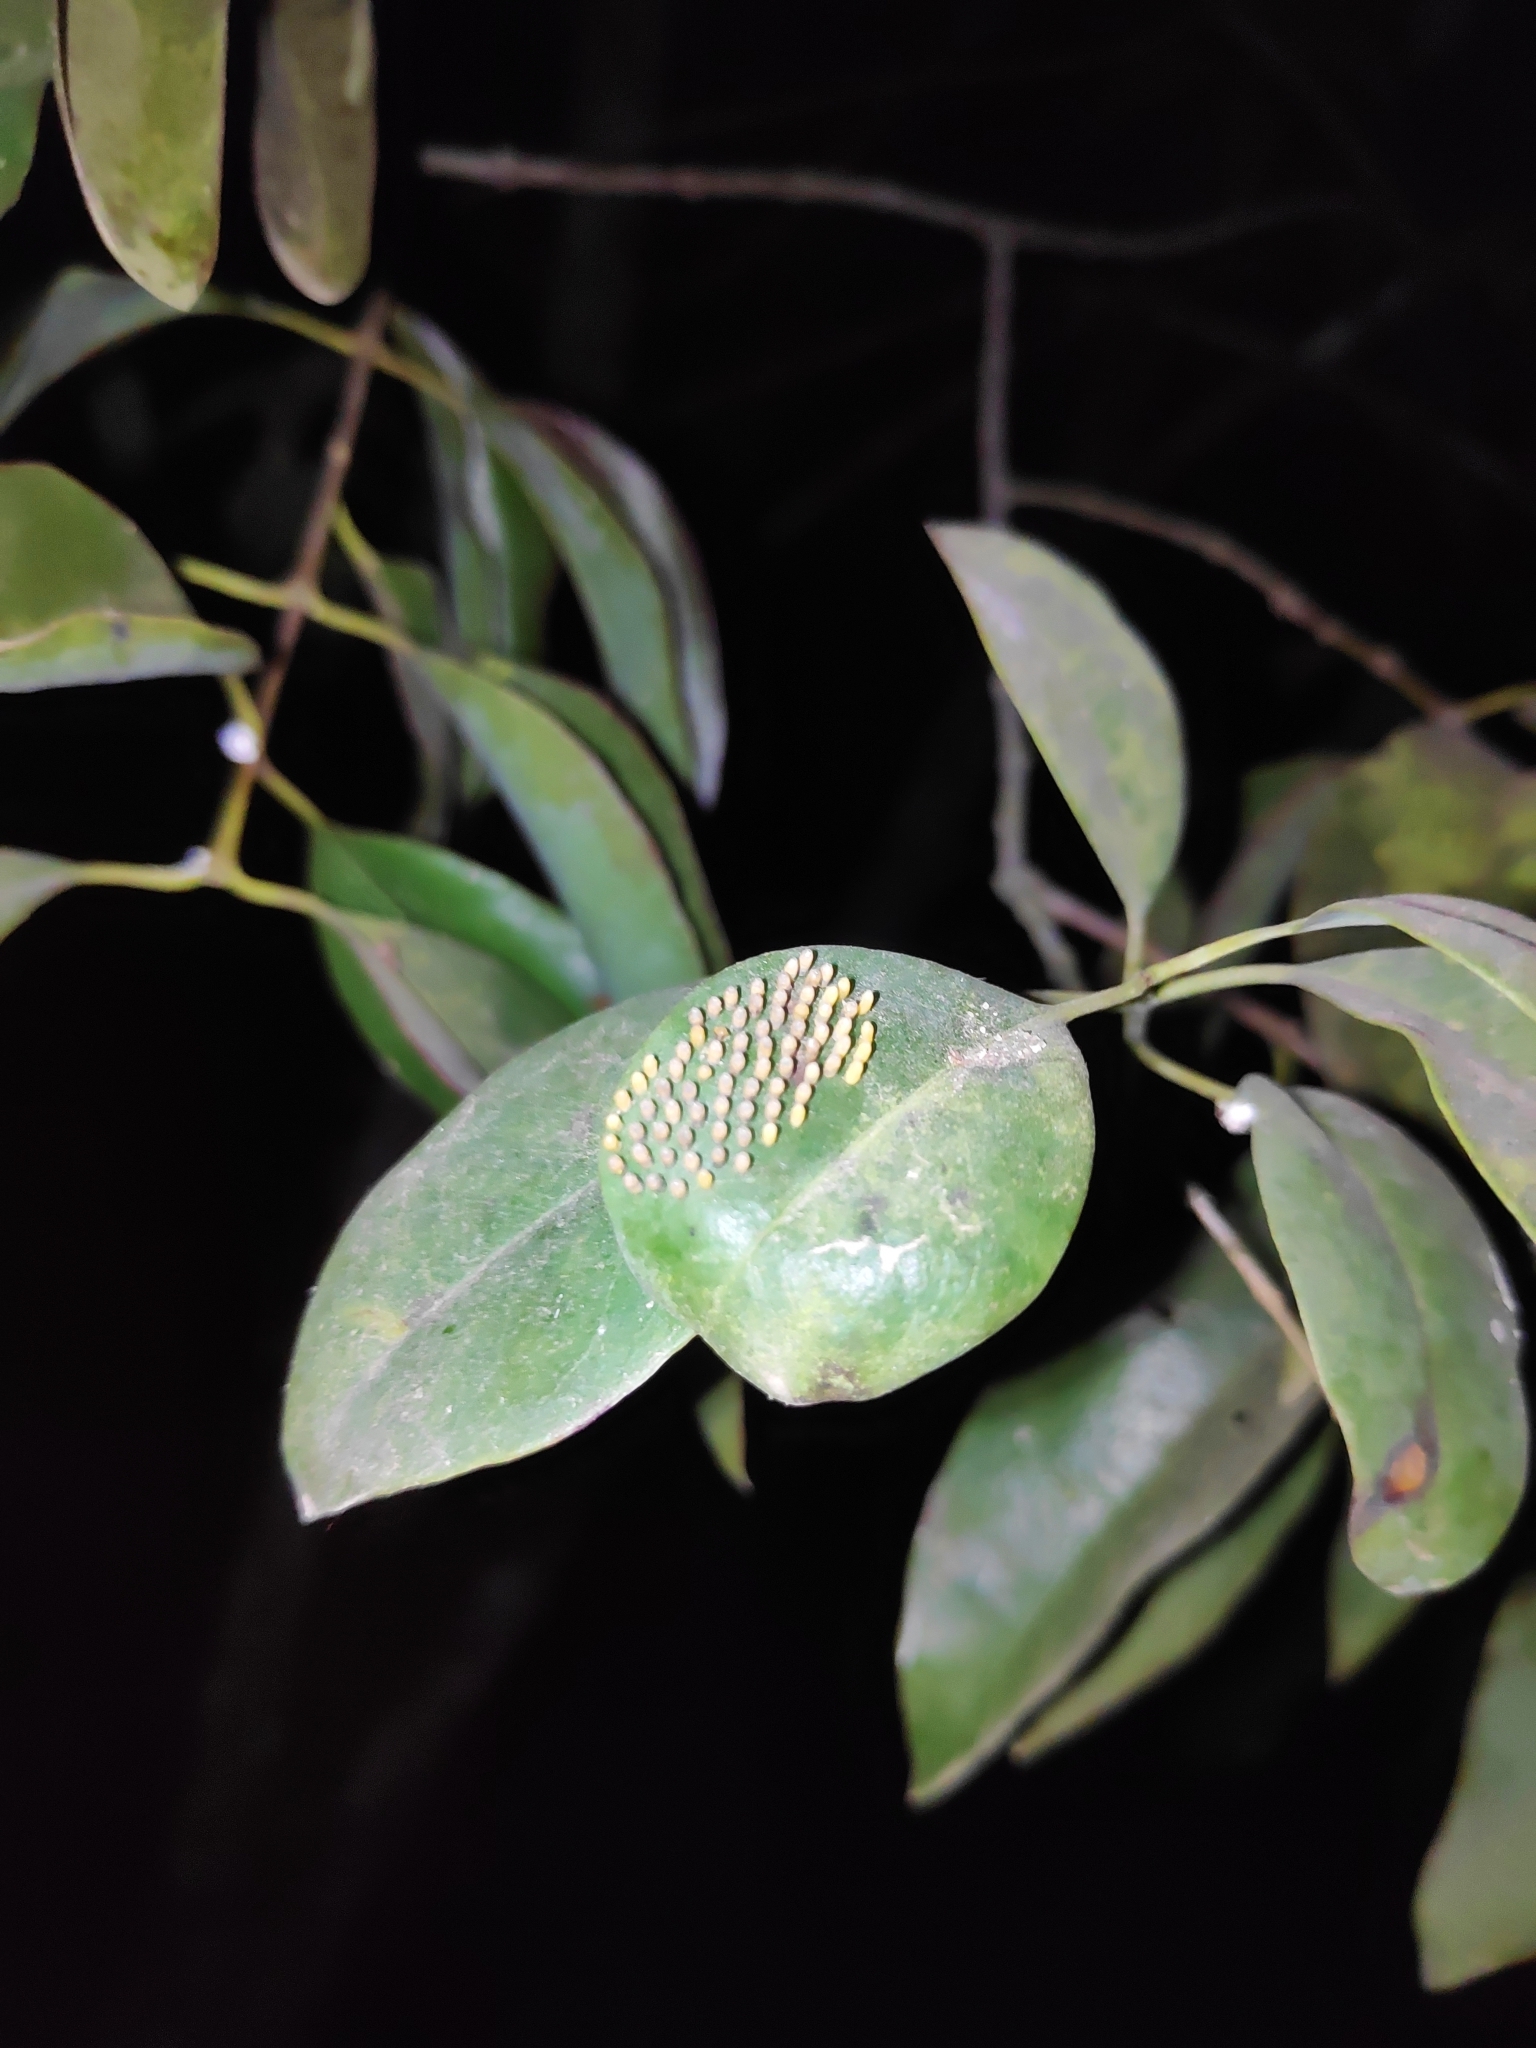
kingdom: Animalia
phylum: Arthropoda
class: Insecta
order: Lepidoptera
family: Pieridae
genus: Delias
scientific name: Delias pasithoe
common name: Red-base jezebel
